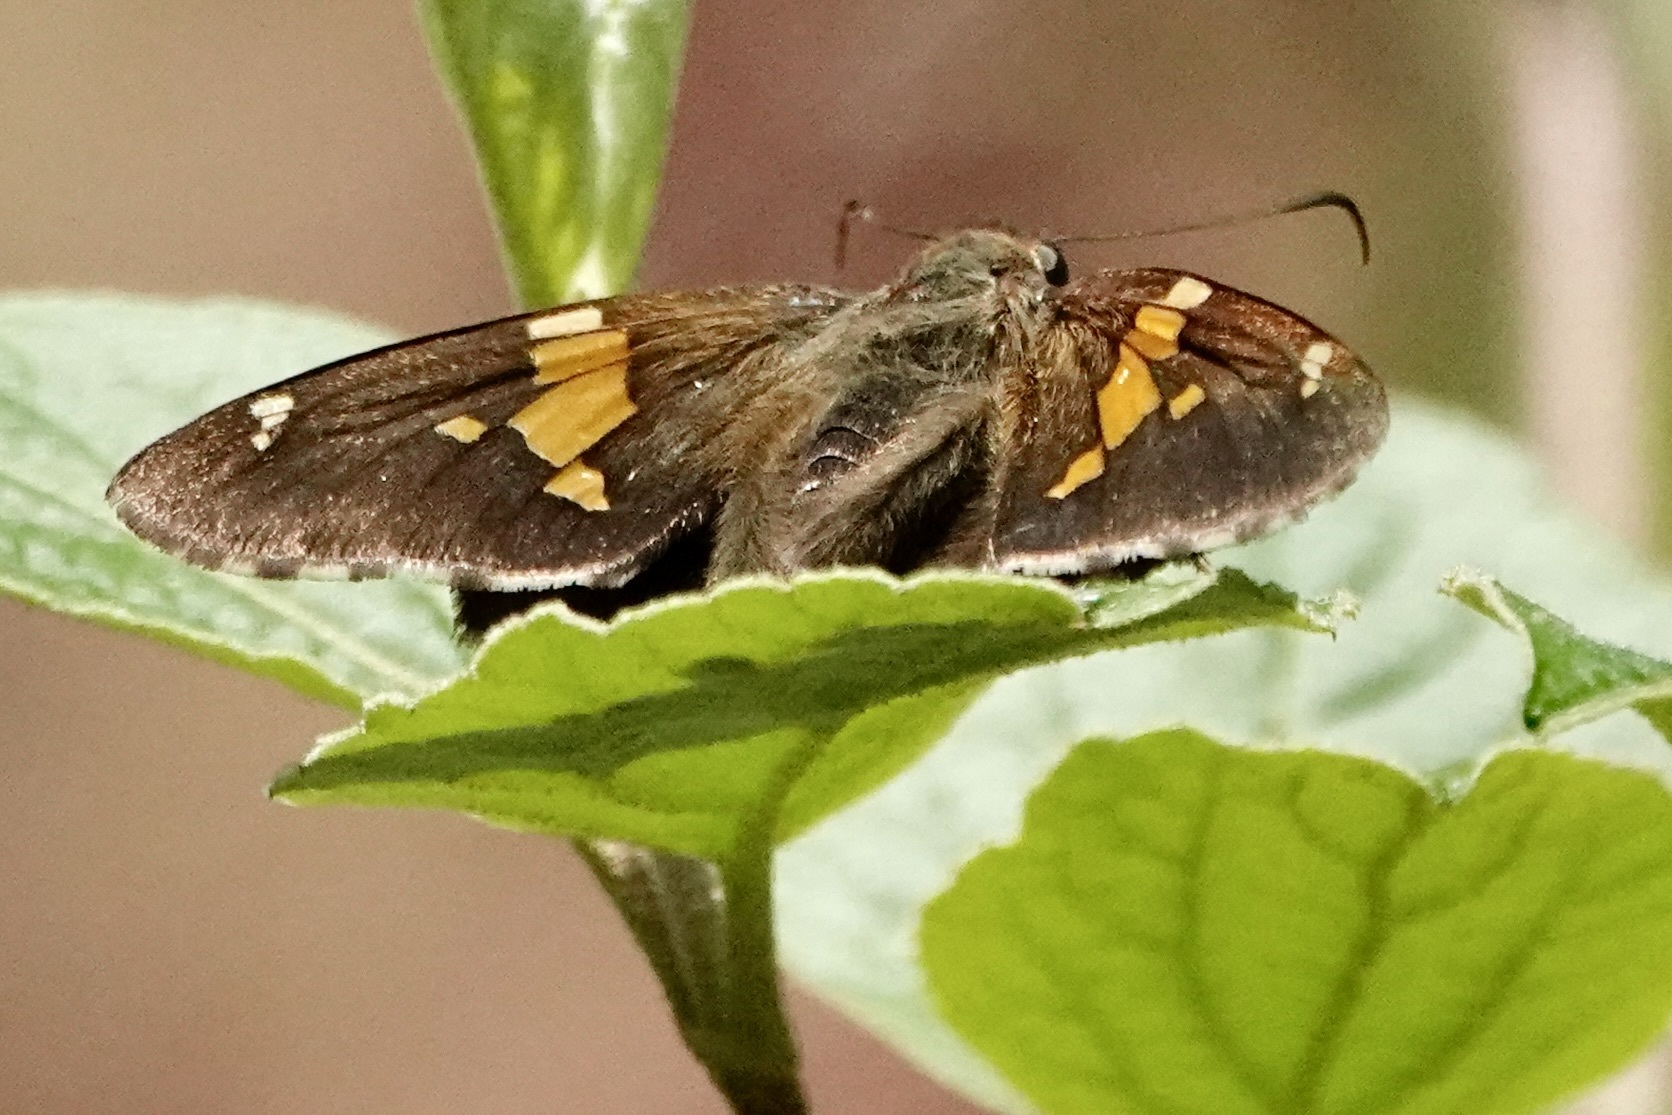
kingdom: Animalia
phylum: Arthropoda
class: Insecta
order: Lepidoptera
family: Hesperiidae
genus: Epargyreus
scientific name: Epargyreus clarus
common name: Silver-spotted skipper
